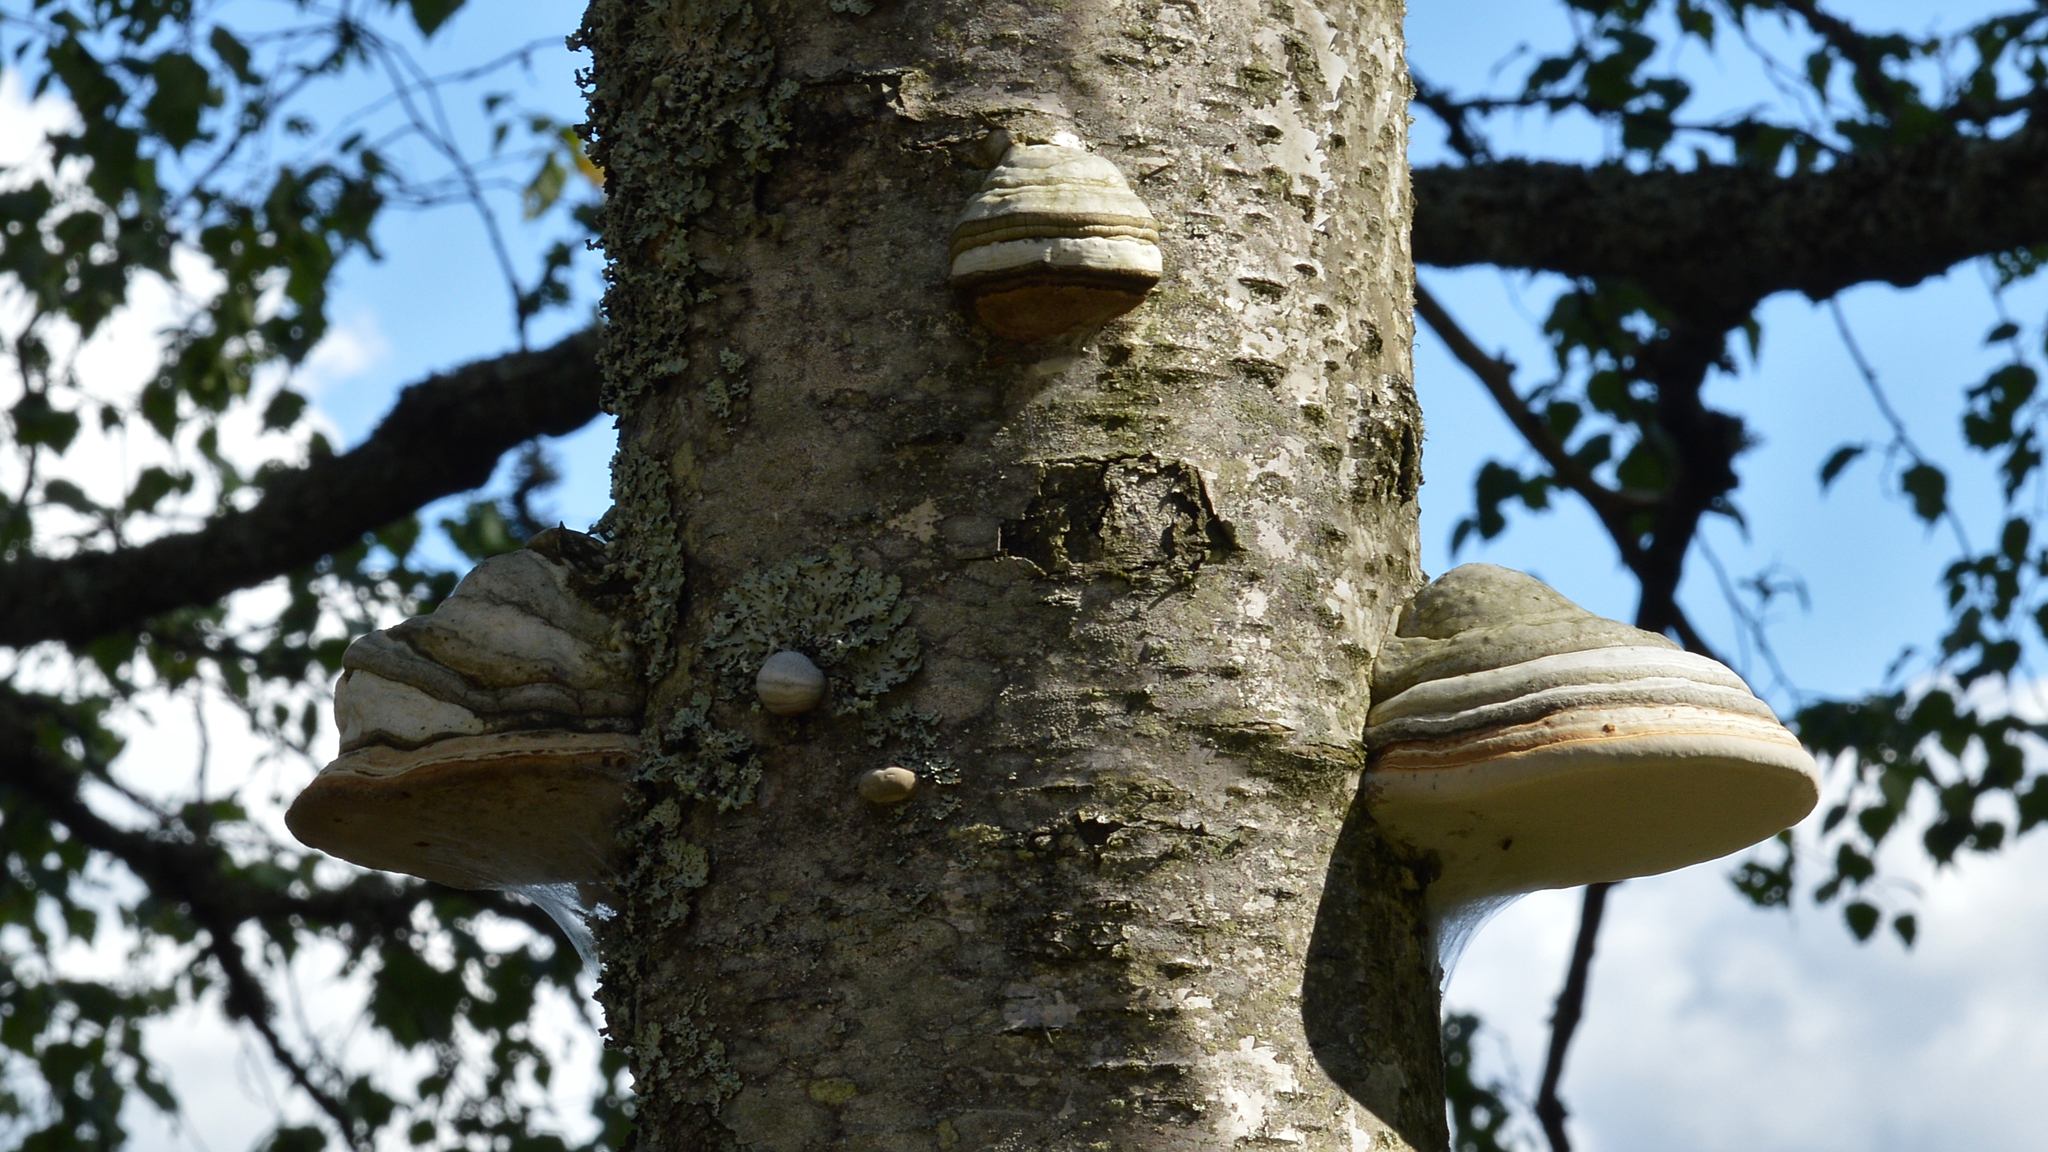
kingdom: Fungi
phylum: Basidiomycota
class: Agaricomycetes
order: Polyporales
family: Polyporaceae
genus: Fomes
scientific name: Fomes fomentarius
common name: Hoof fungus
